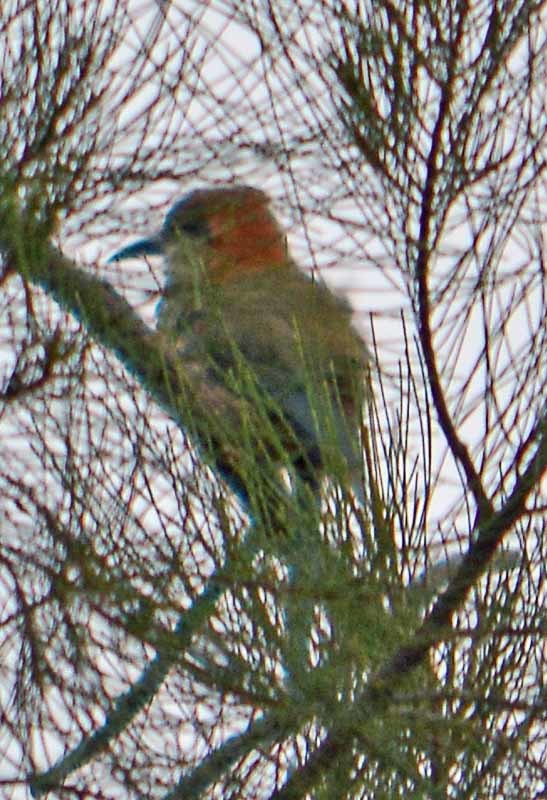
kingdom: Animalia
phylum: Chordata
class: Aves
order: Coraciiformes
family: Momotidae
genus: Momotus
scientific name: Momotus mexicanus
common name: Russet-crowned motmot
